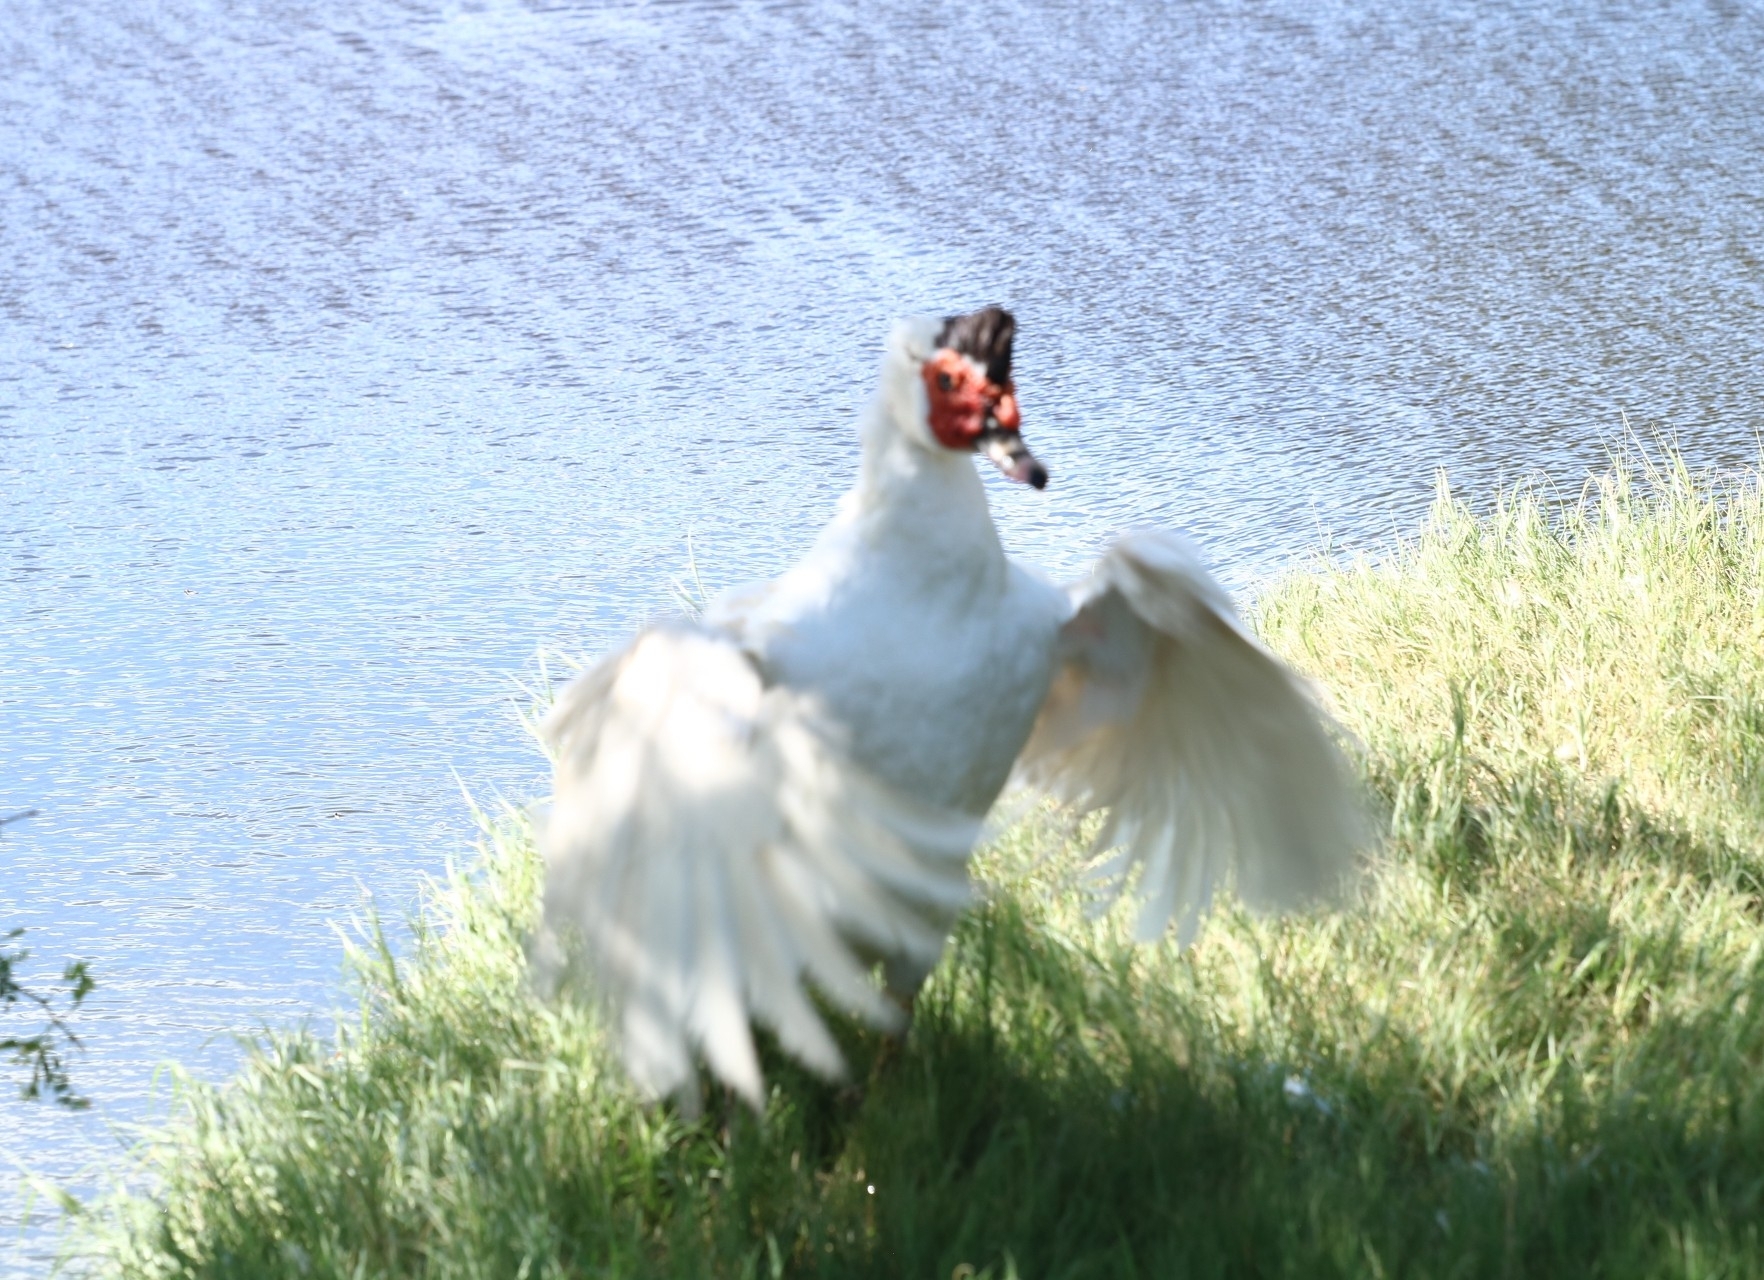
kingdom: Animalia
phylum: Chordata
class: Aves
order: Anseriformes
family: Anatidae
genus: Cairina
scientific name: Cairina moschata
